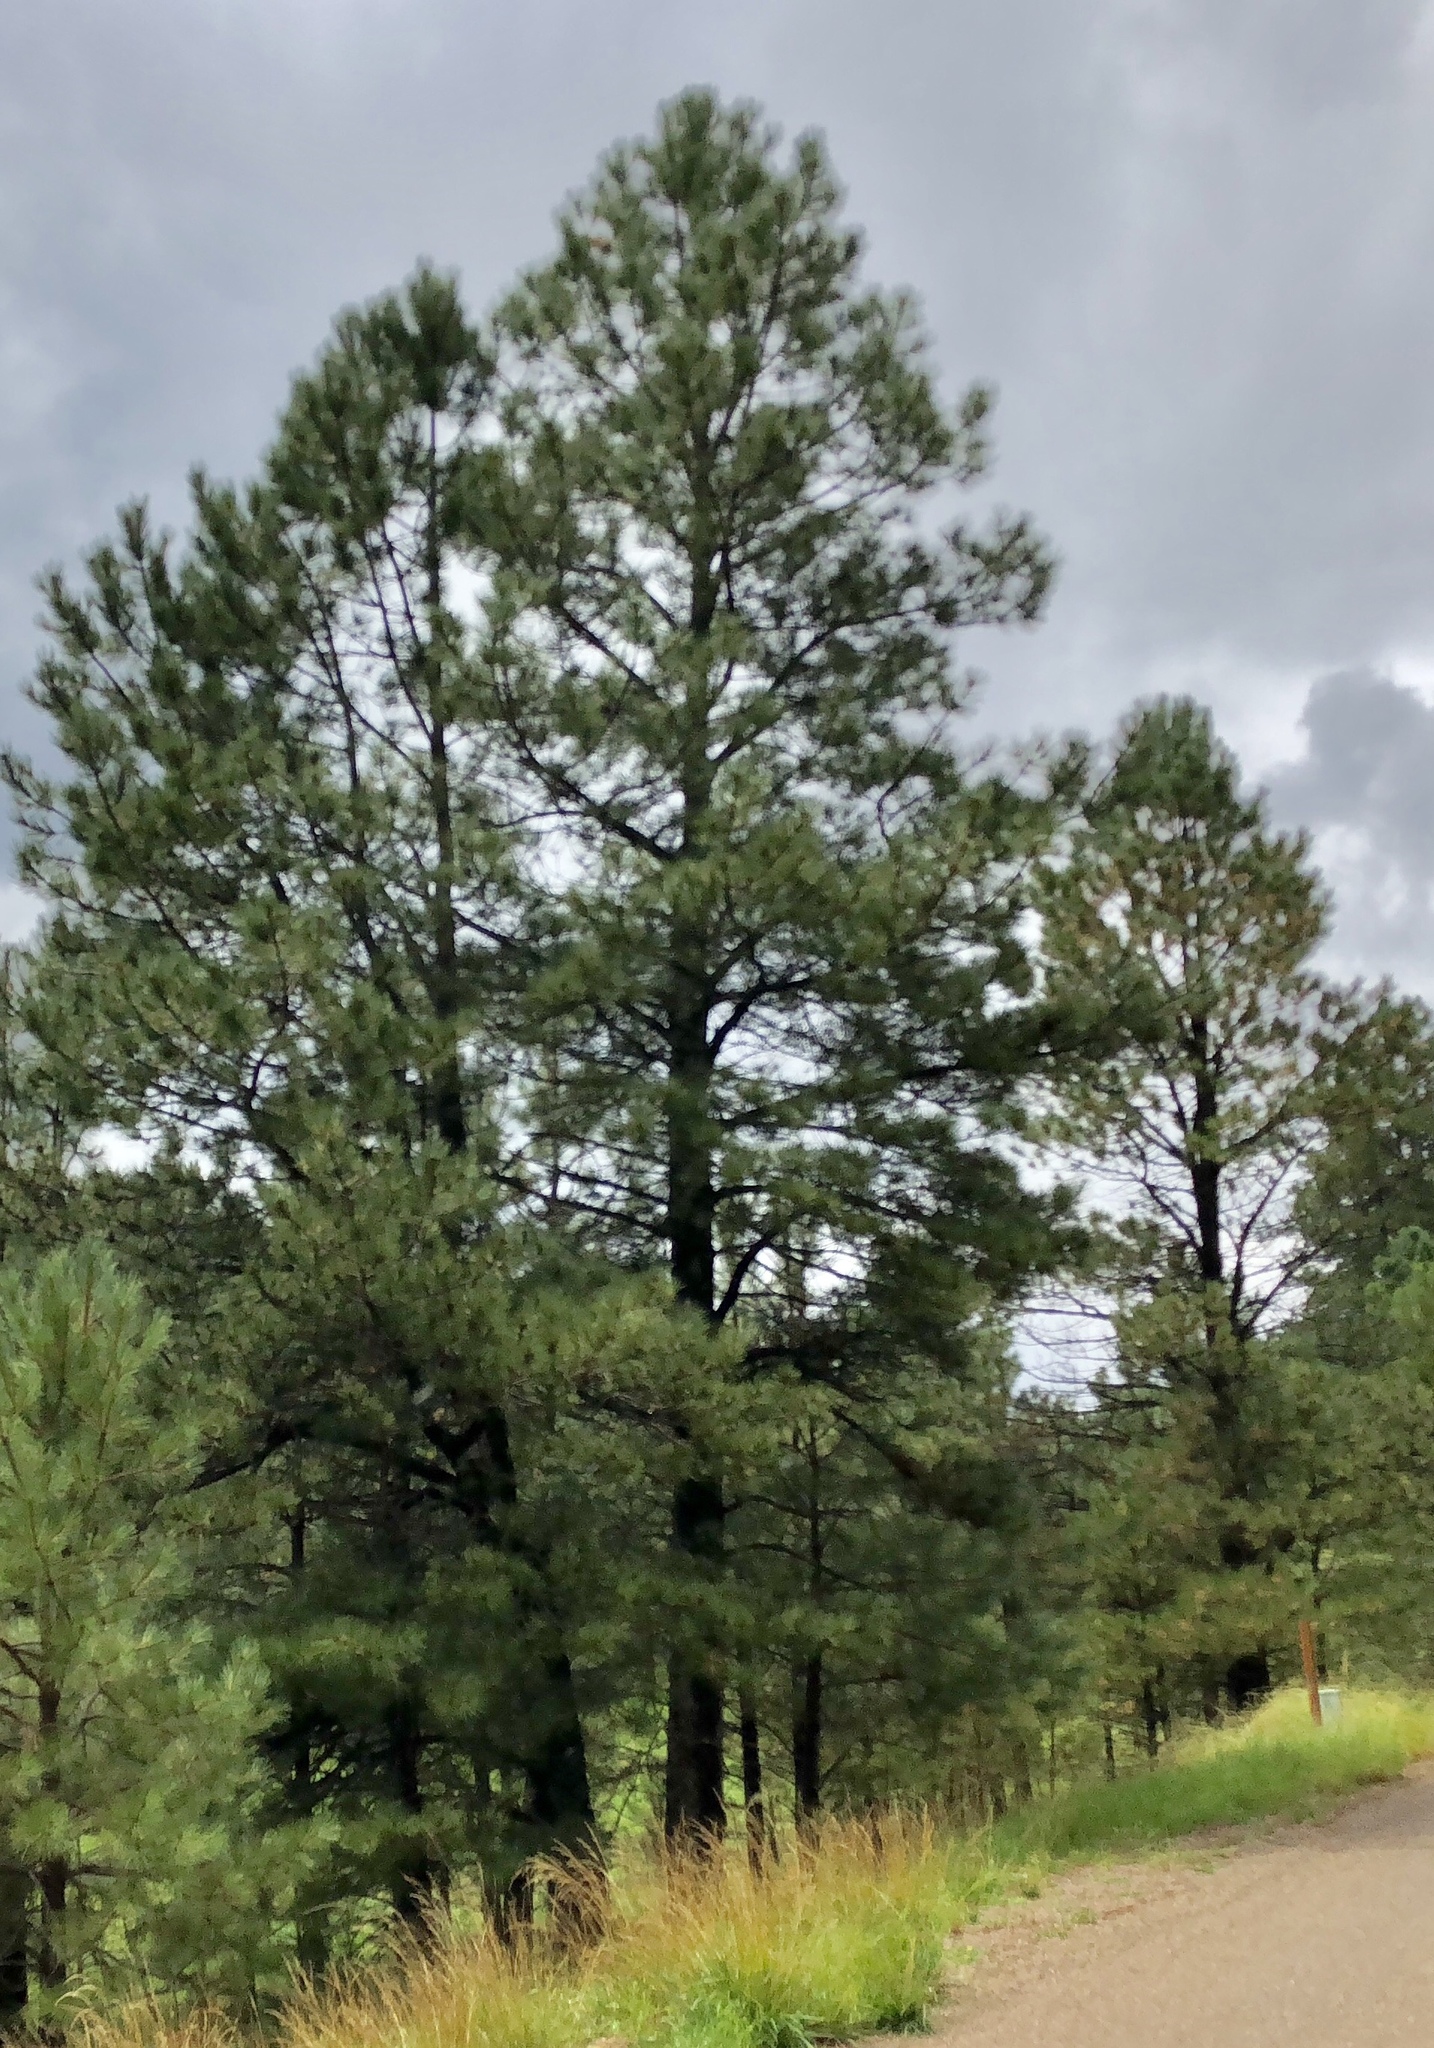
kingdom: Plantae
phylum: Tracheophyta
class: Pinopsida
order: Pinales
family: Pinaceae
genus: Pinus
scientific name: Pinus ponderosa
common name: Western yellow-pine
